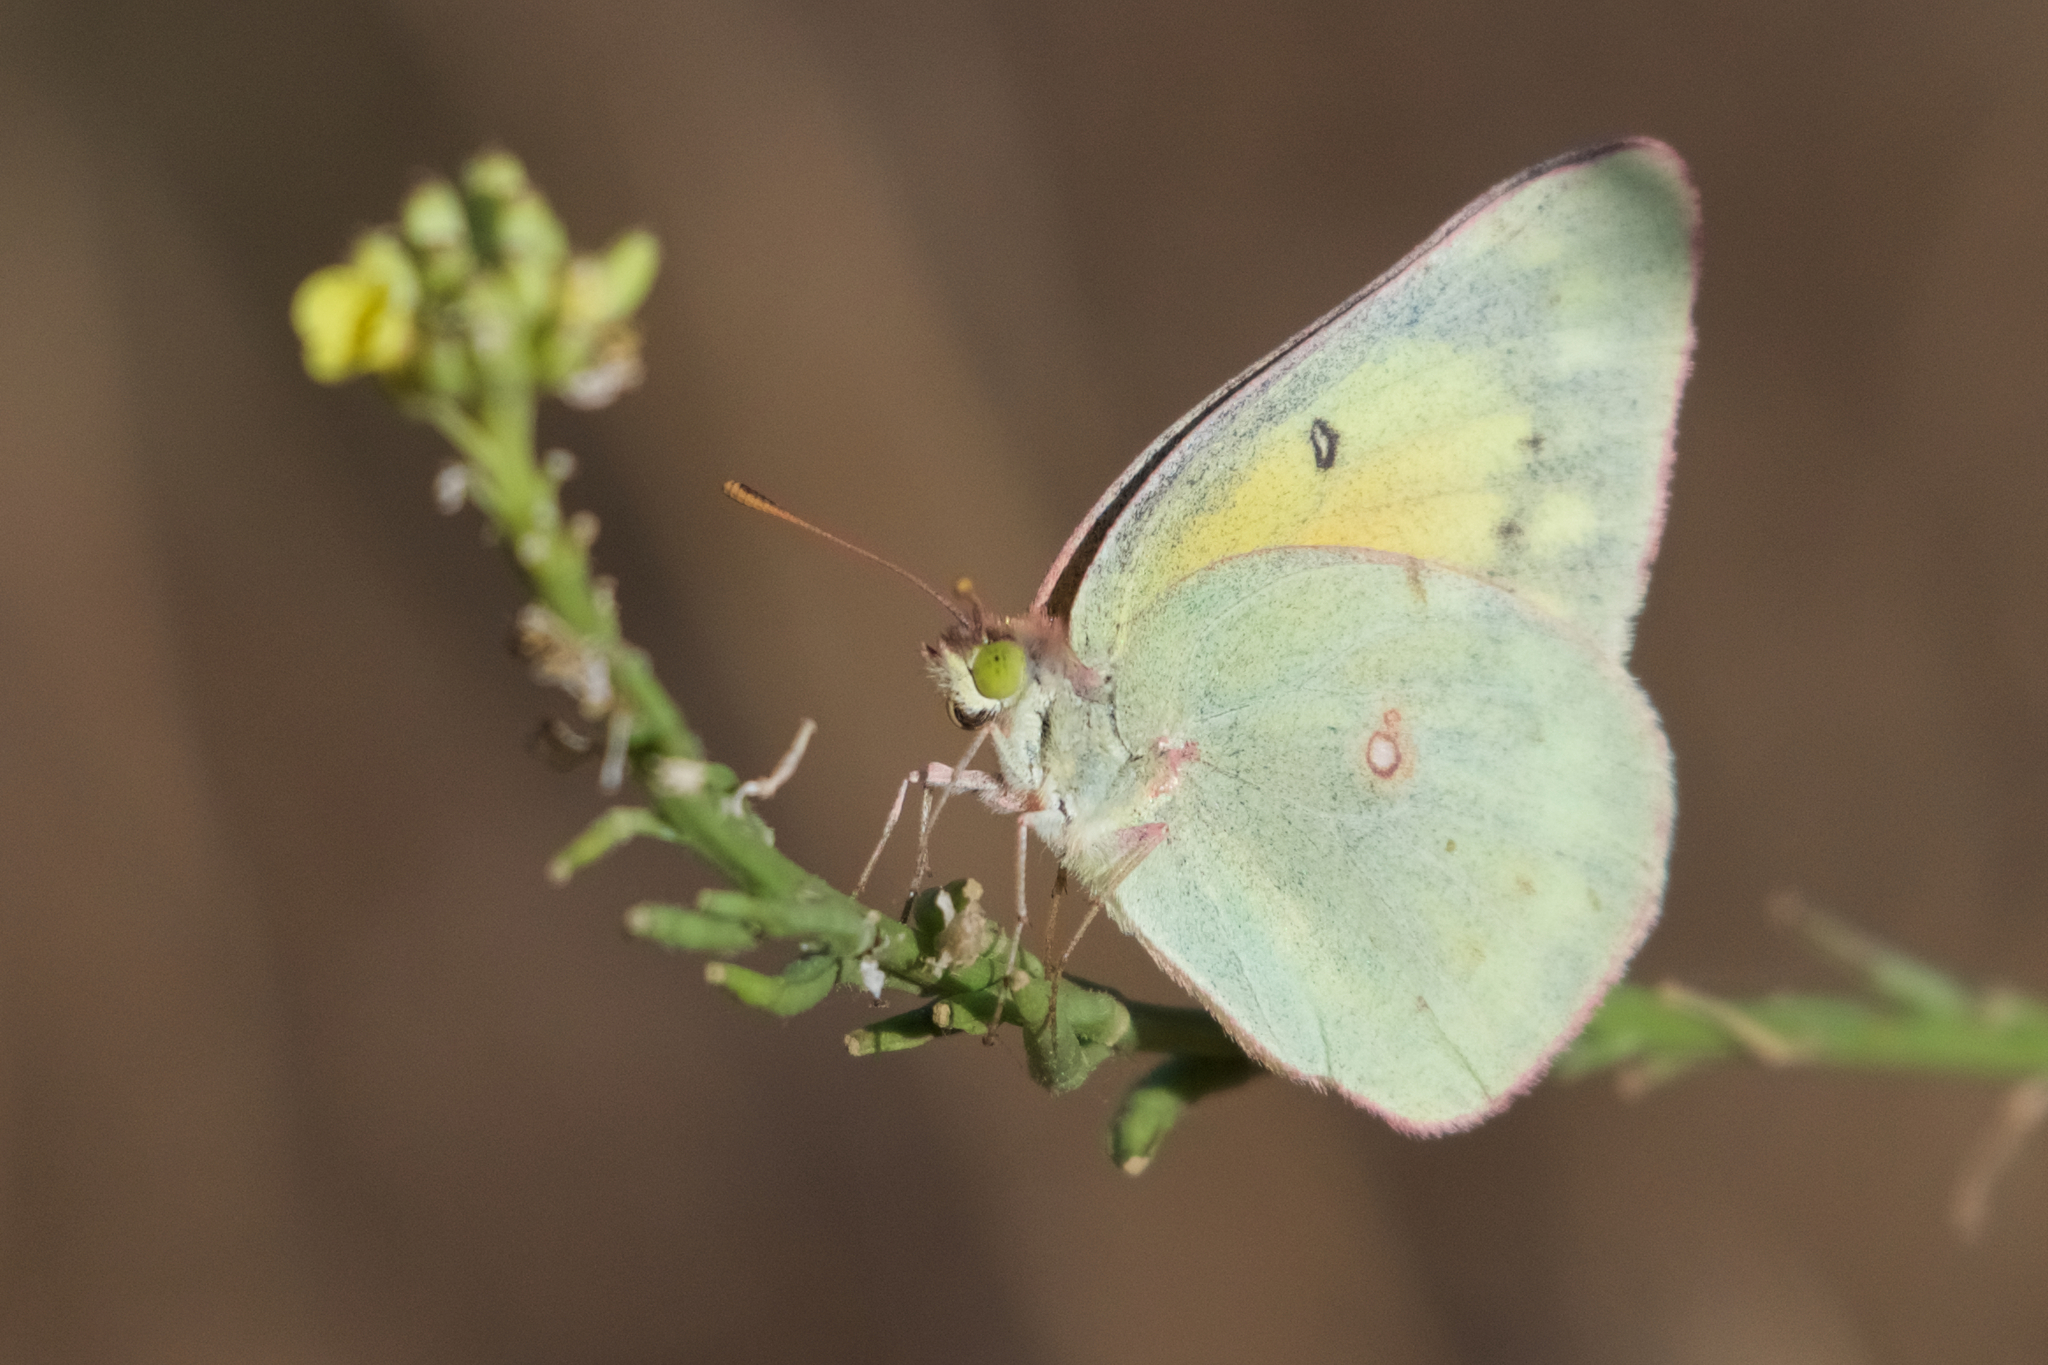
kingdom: Animalia
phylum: Arthropoda
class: Insecta
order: Lepidoptera
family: Pieridae
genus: Colias
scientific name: Colias eurytheme
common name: Alfalfa butterfly
